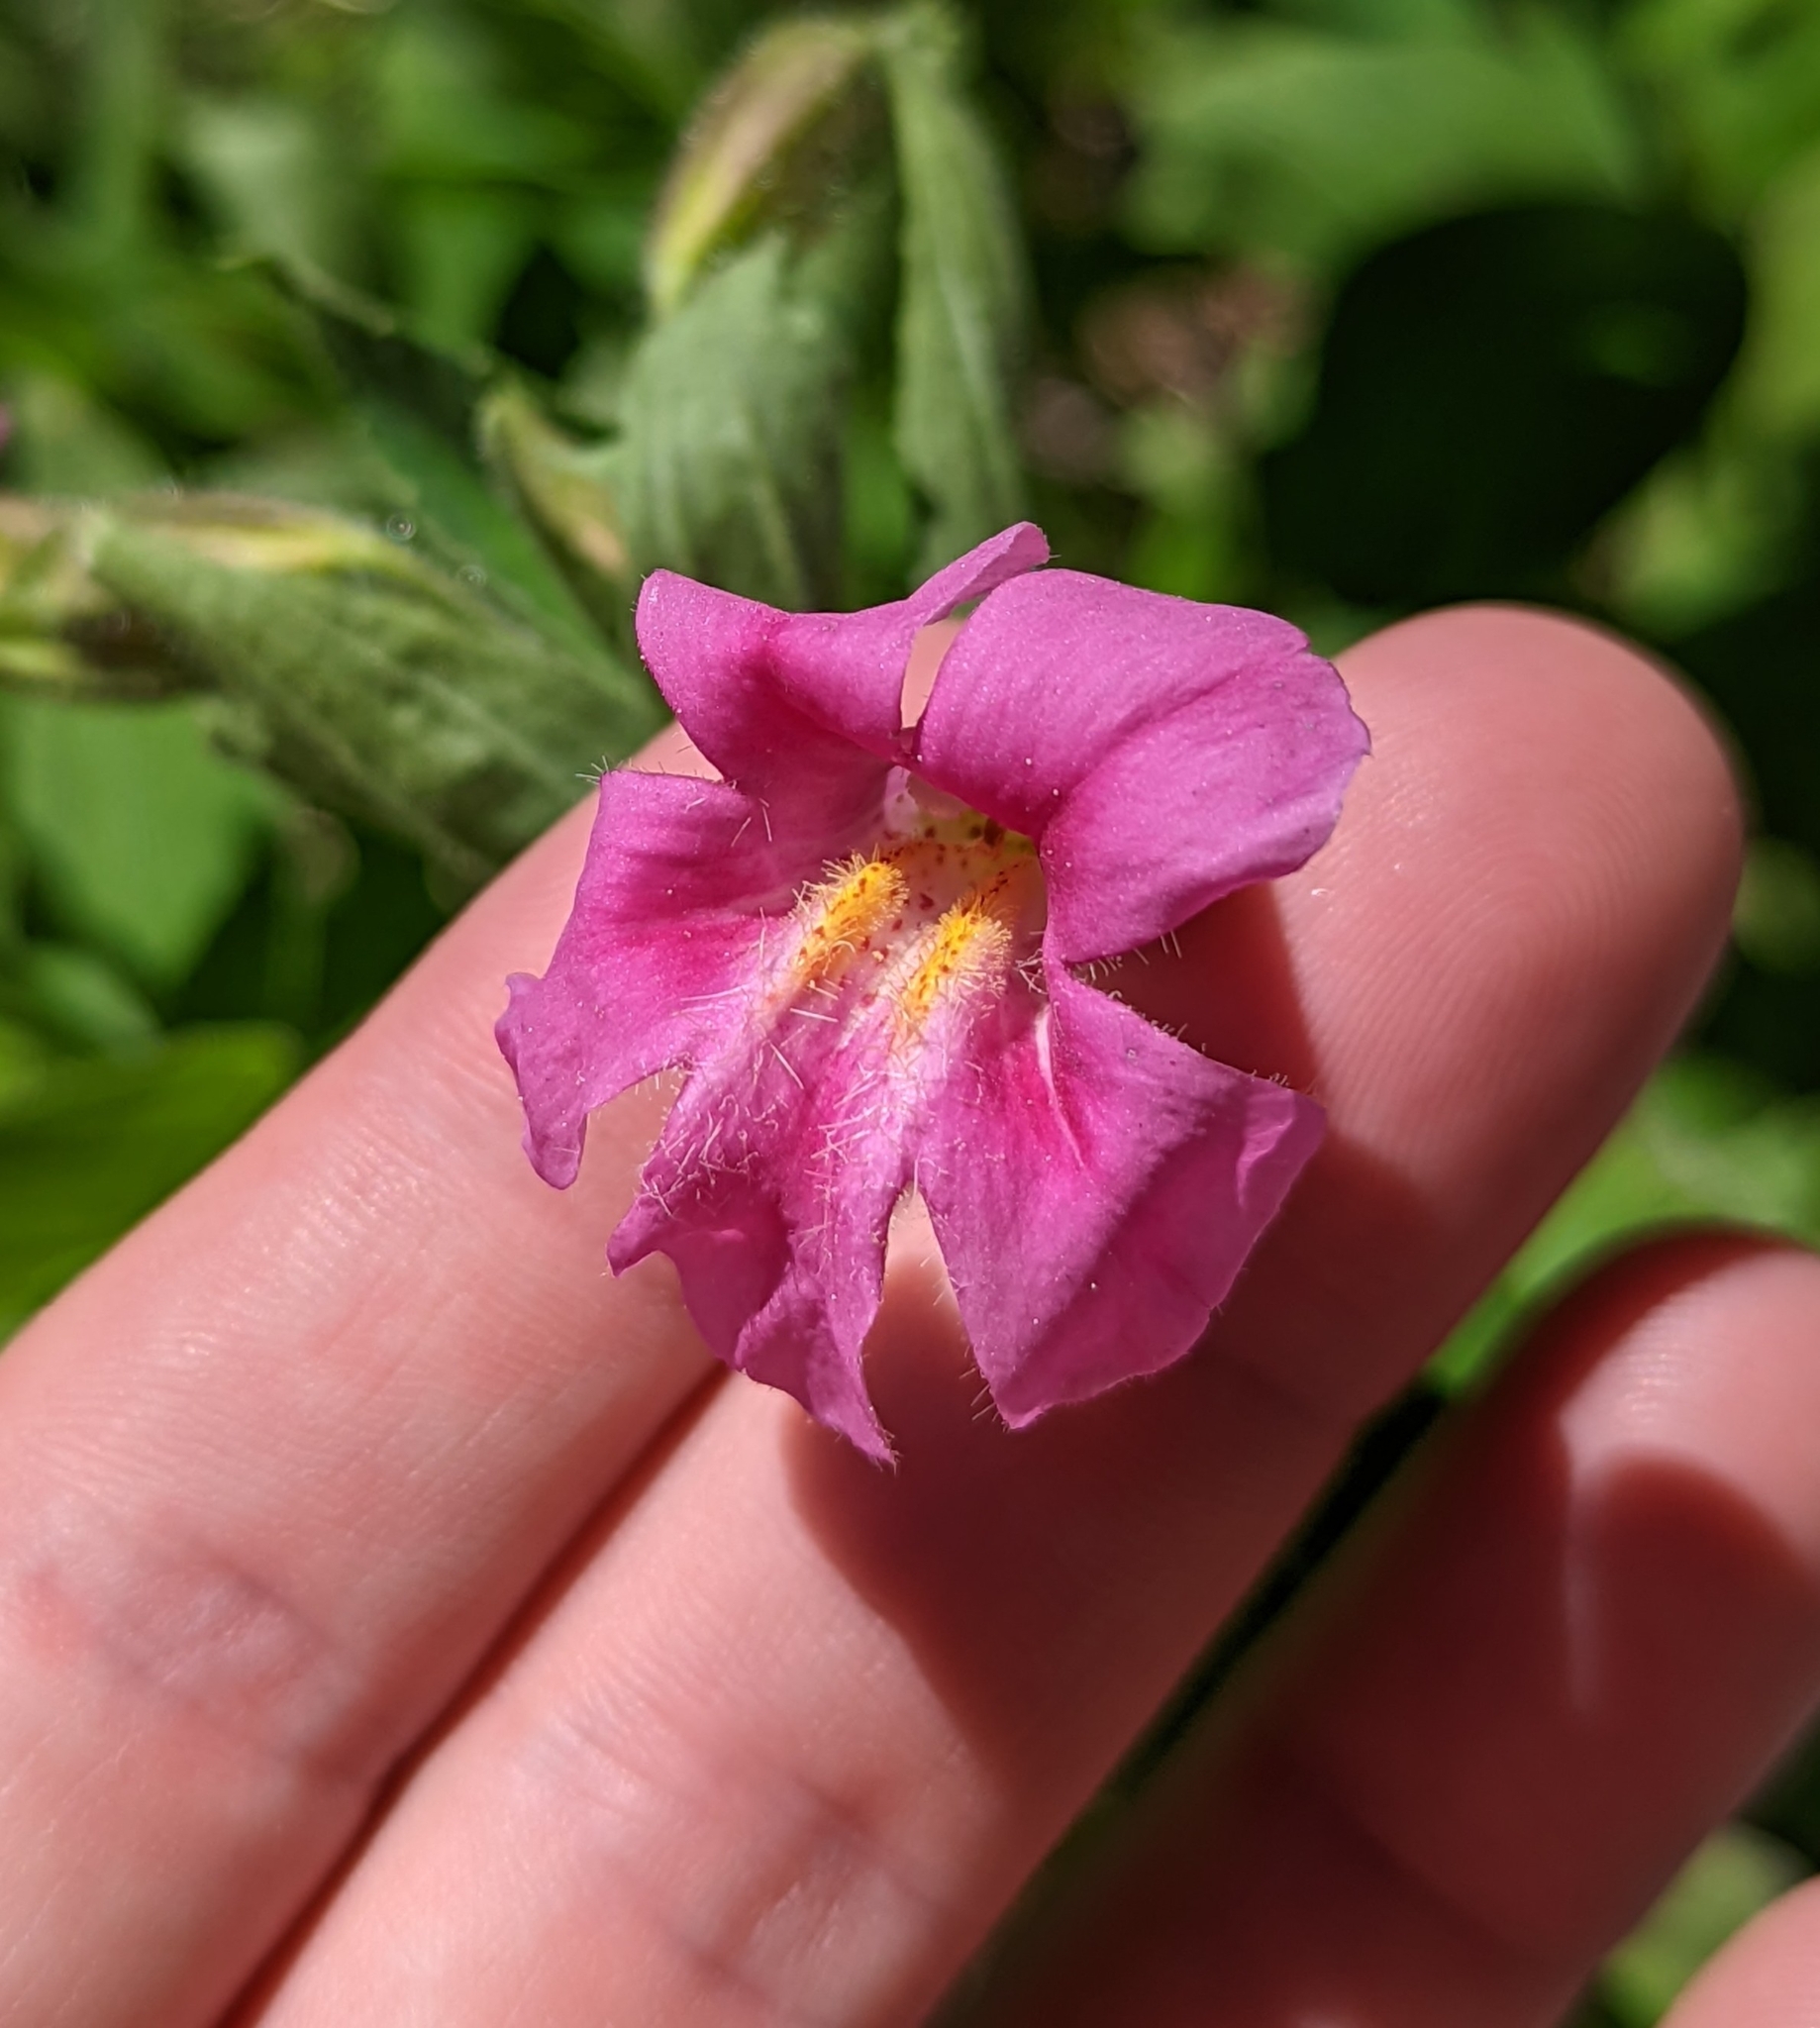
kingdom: Plantae
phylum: Tracheophyta
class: Magnoliopsida
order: Lamiales
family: Phrymaceae
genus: Erythranthe
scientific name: Erythranthe lewisii
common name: Lewis's monkey-flower
